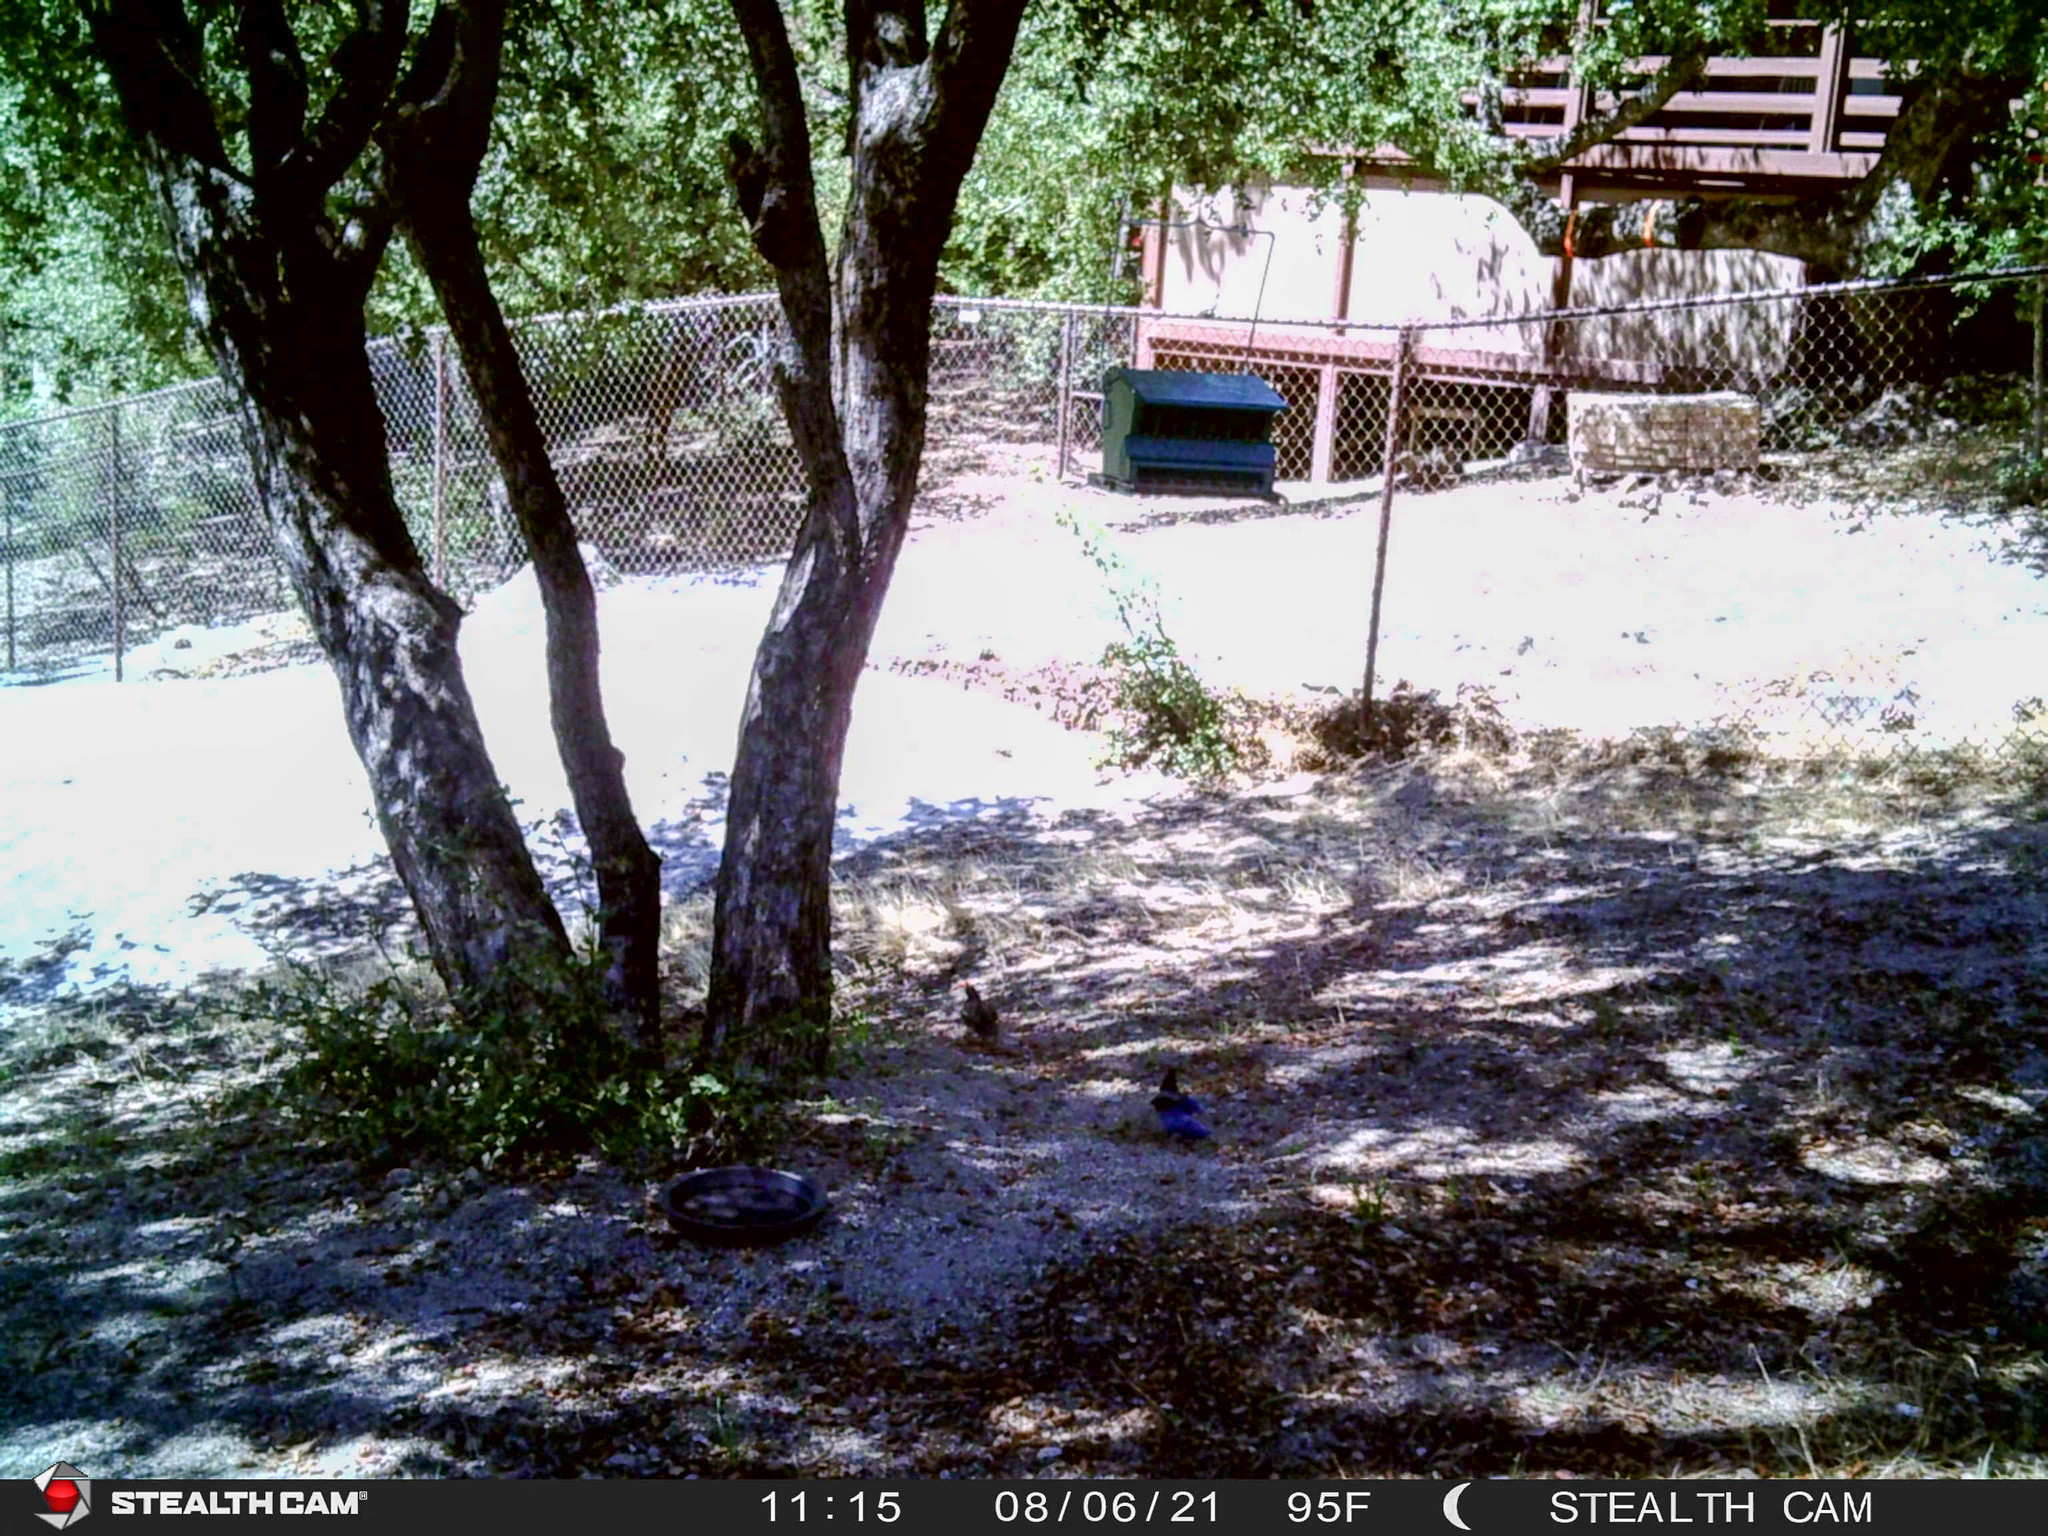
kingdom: Animalia
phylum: Chordata
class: Aves
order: Passeriformes
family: Corvidae
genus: Cyanocitta
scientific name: Cyanocitta stelleri
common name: Steller's jay
